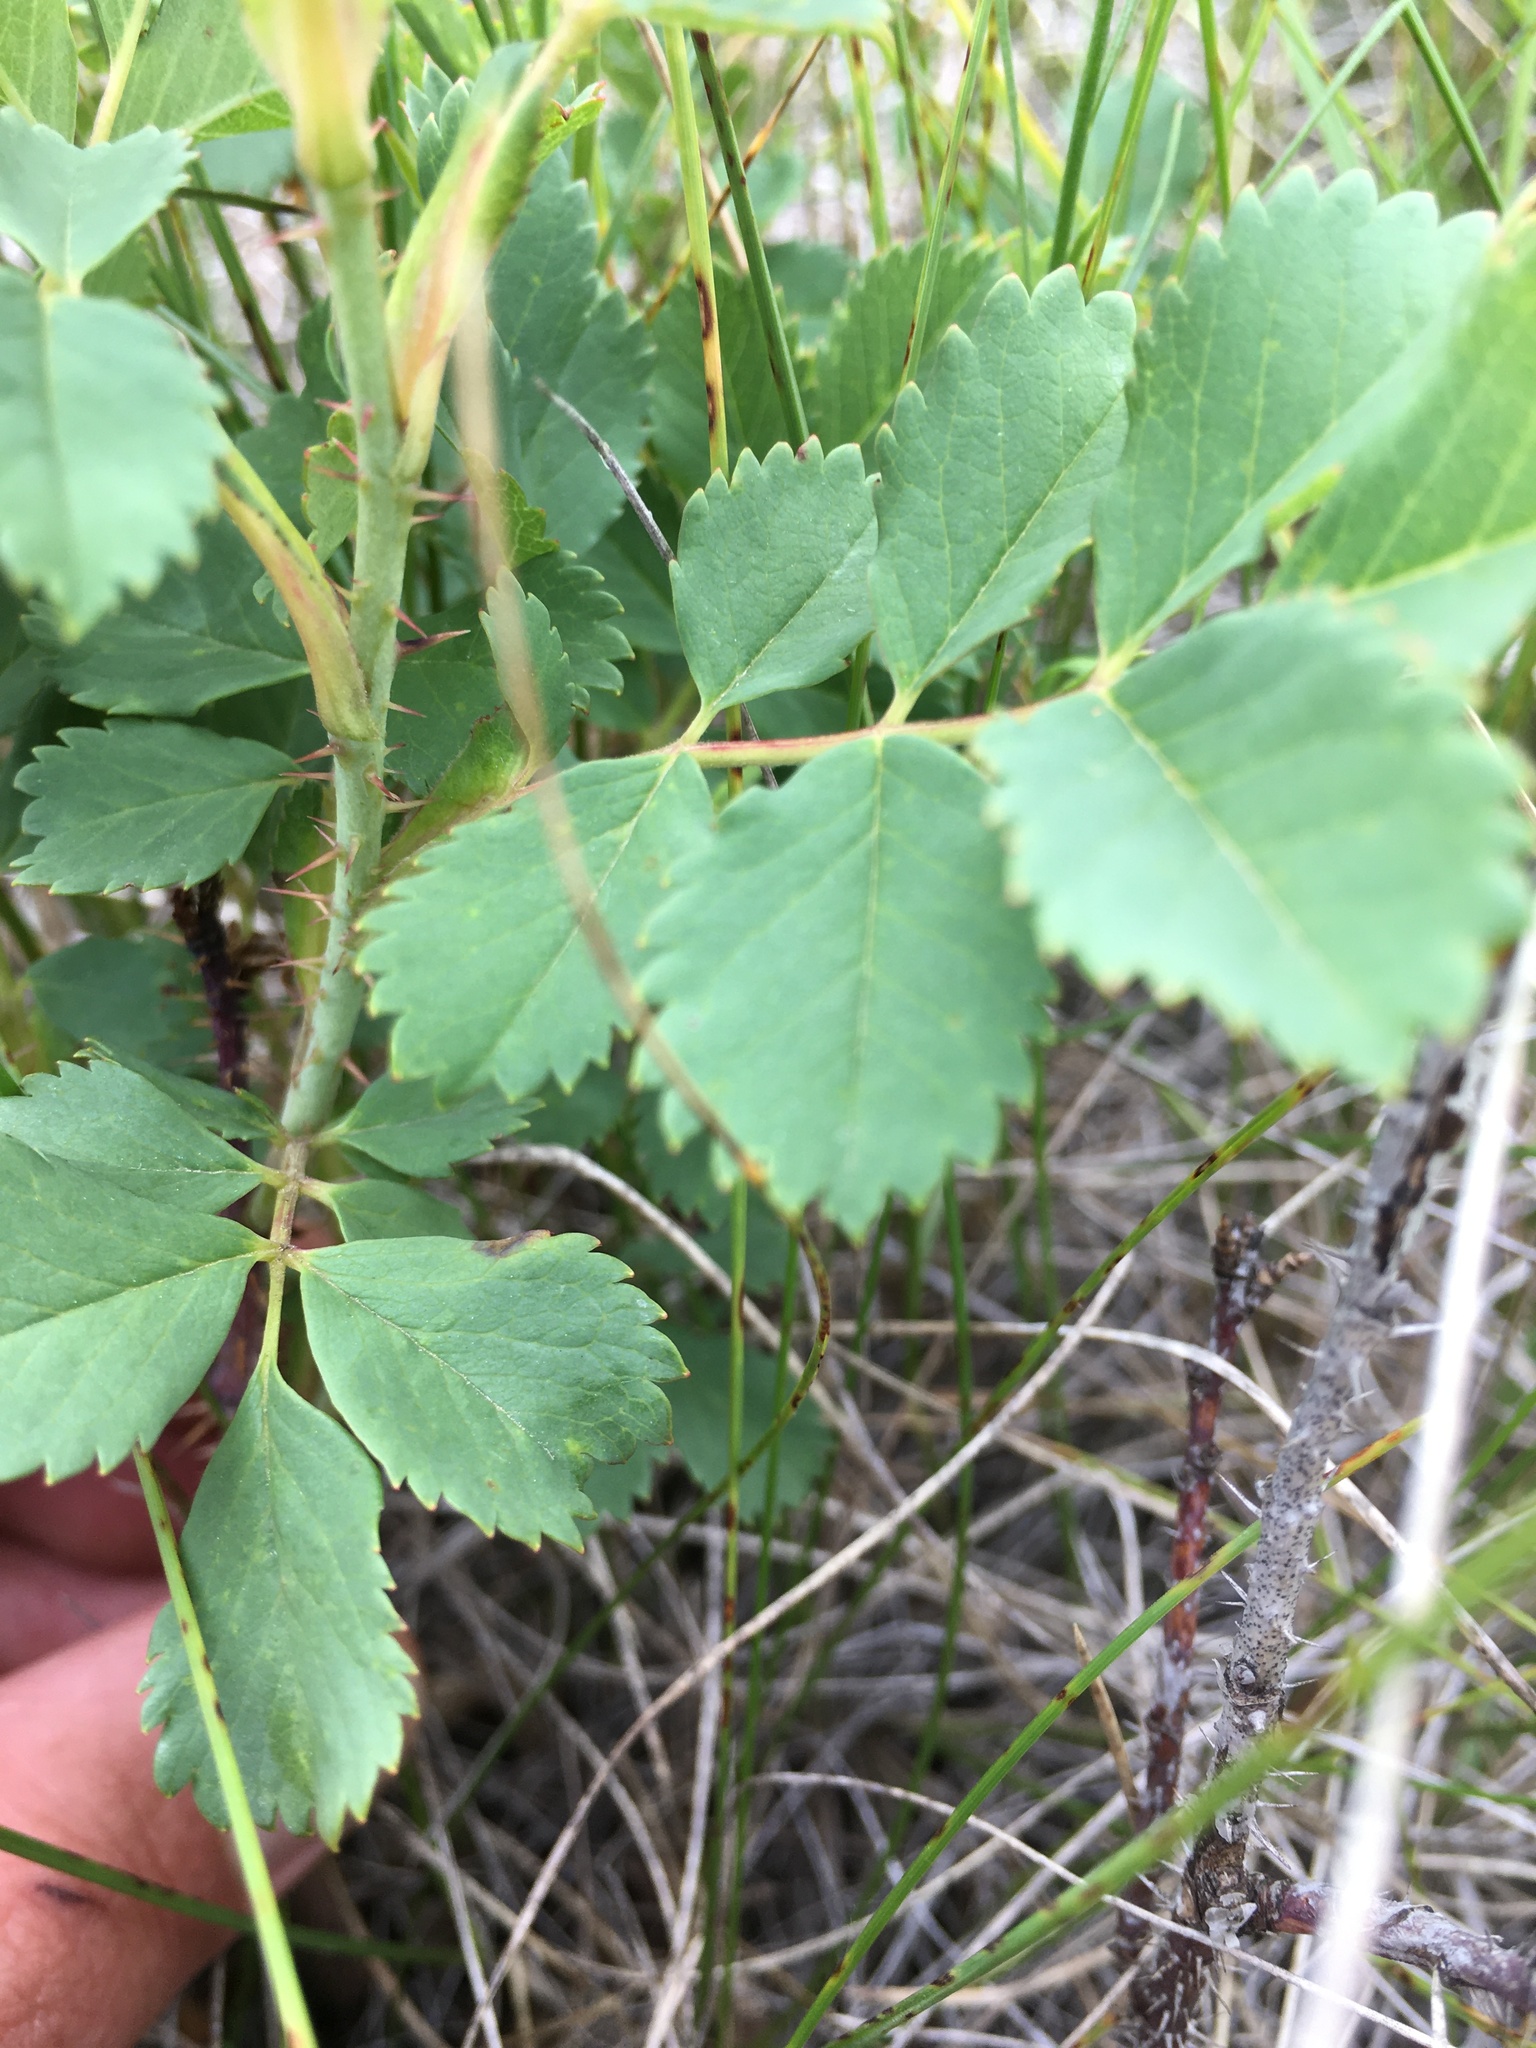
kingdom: Plantae
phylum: Tracheophyta
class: Magnoliopsida
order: Rosales
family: Rosaceae
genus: Rosa
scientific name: Rosa arkansana
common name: Prairie rose
